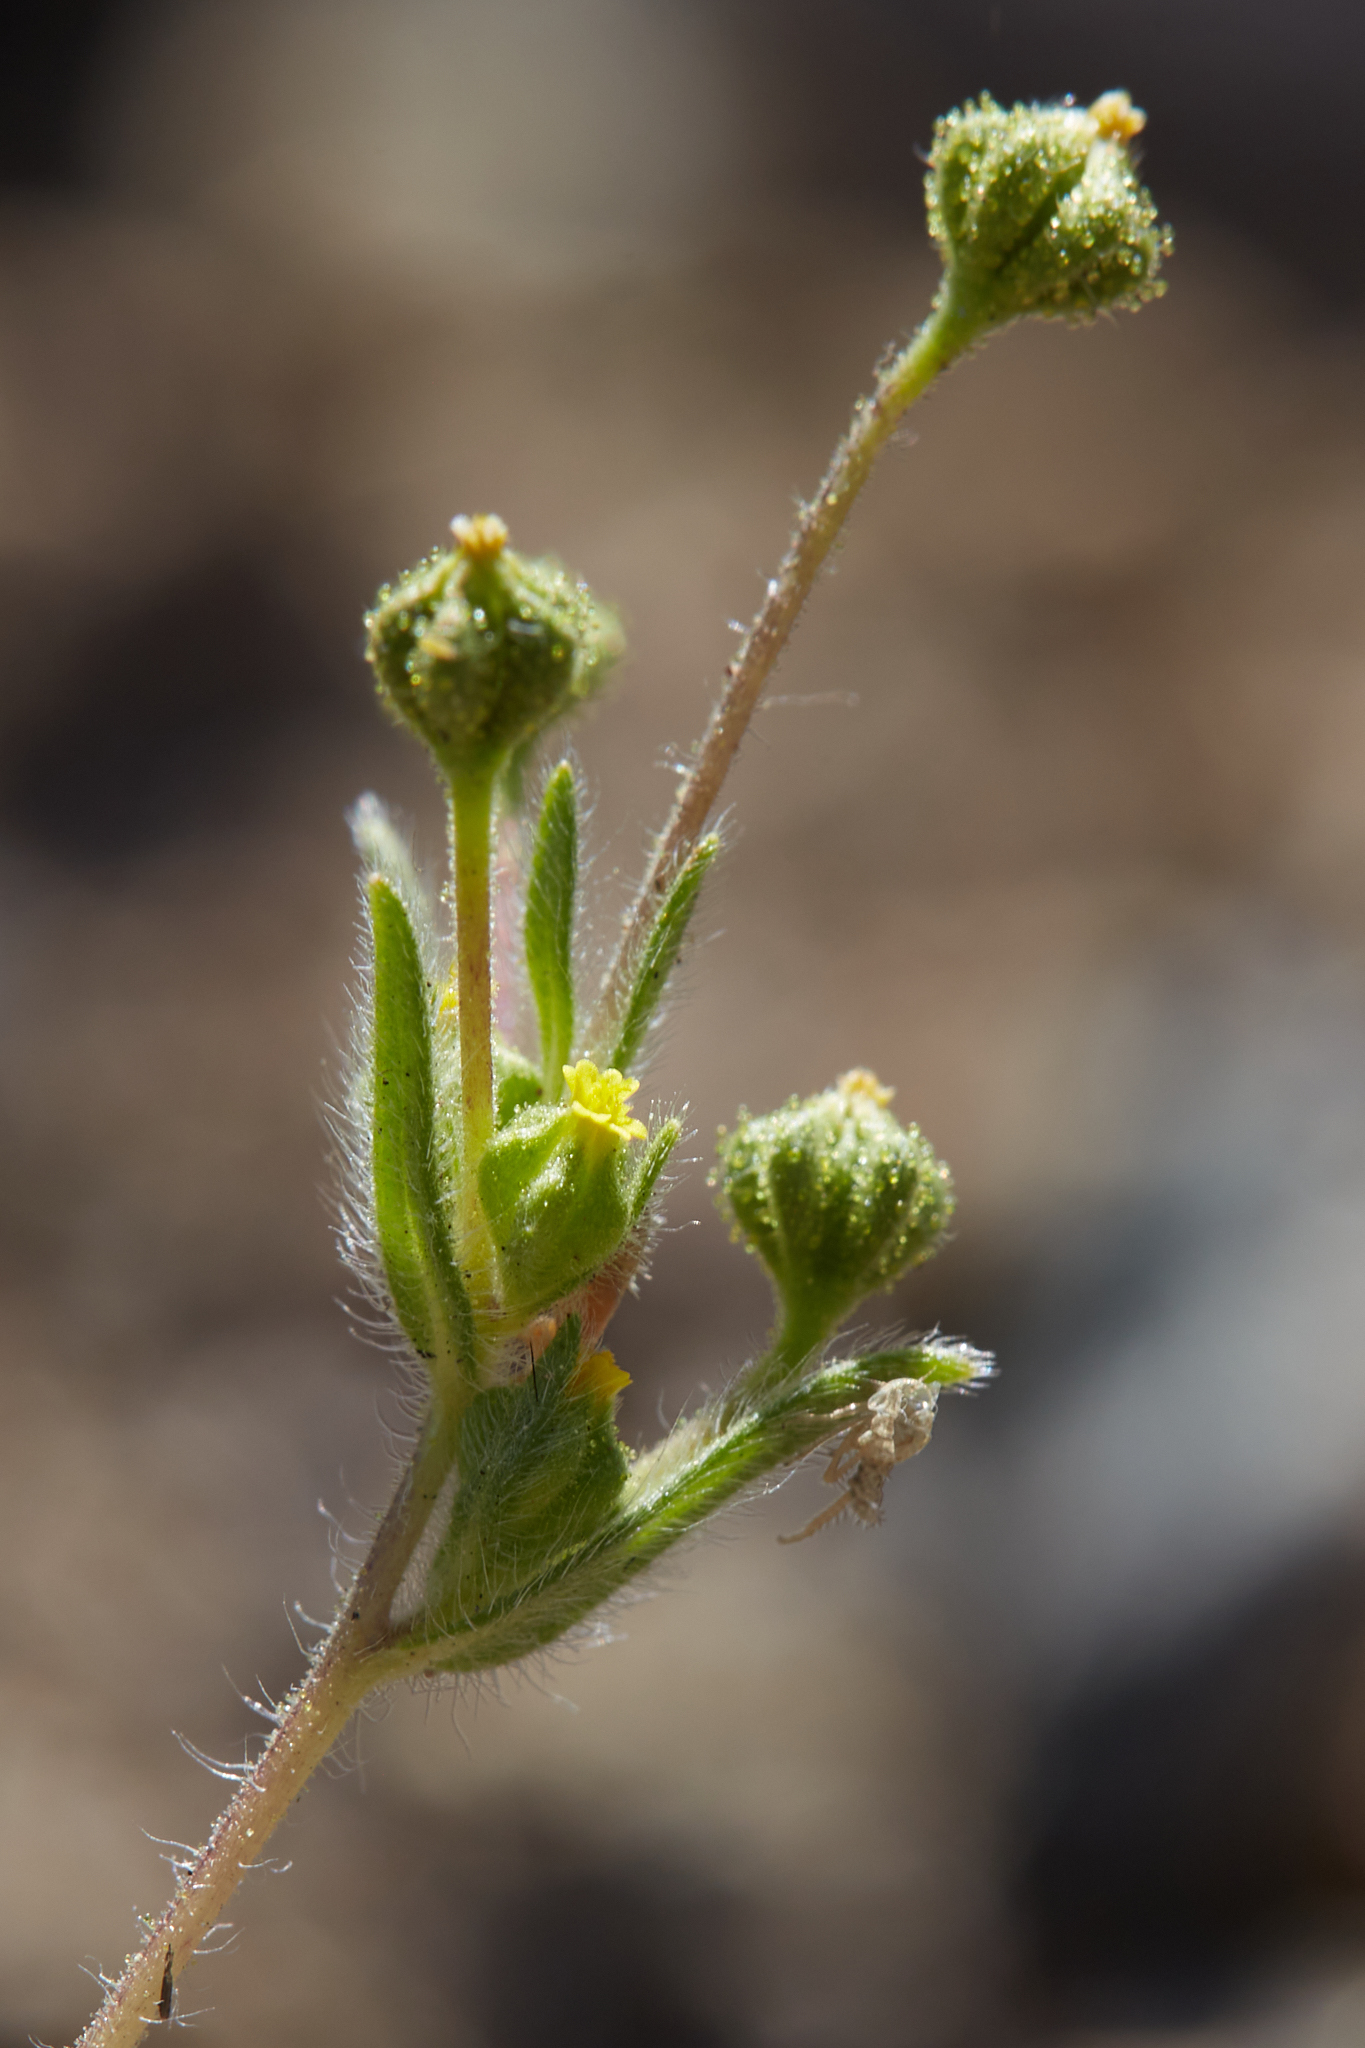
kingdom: Plantae
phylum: Tracheophyta
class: Magnoliopsida
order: Asterales
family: Asteraceae
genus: Madia
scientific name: Madia exigua
